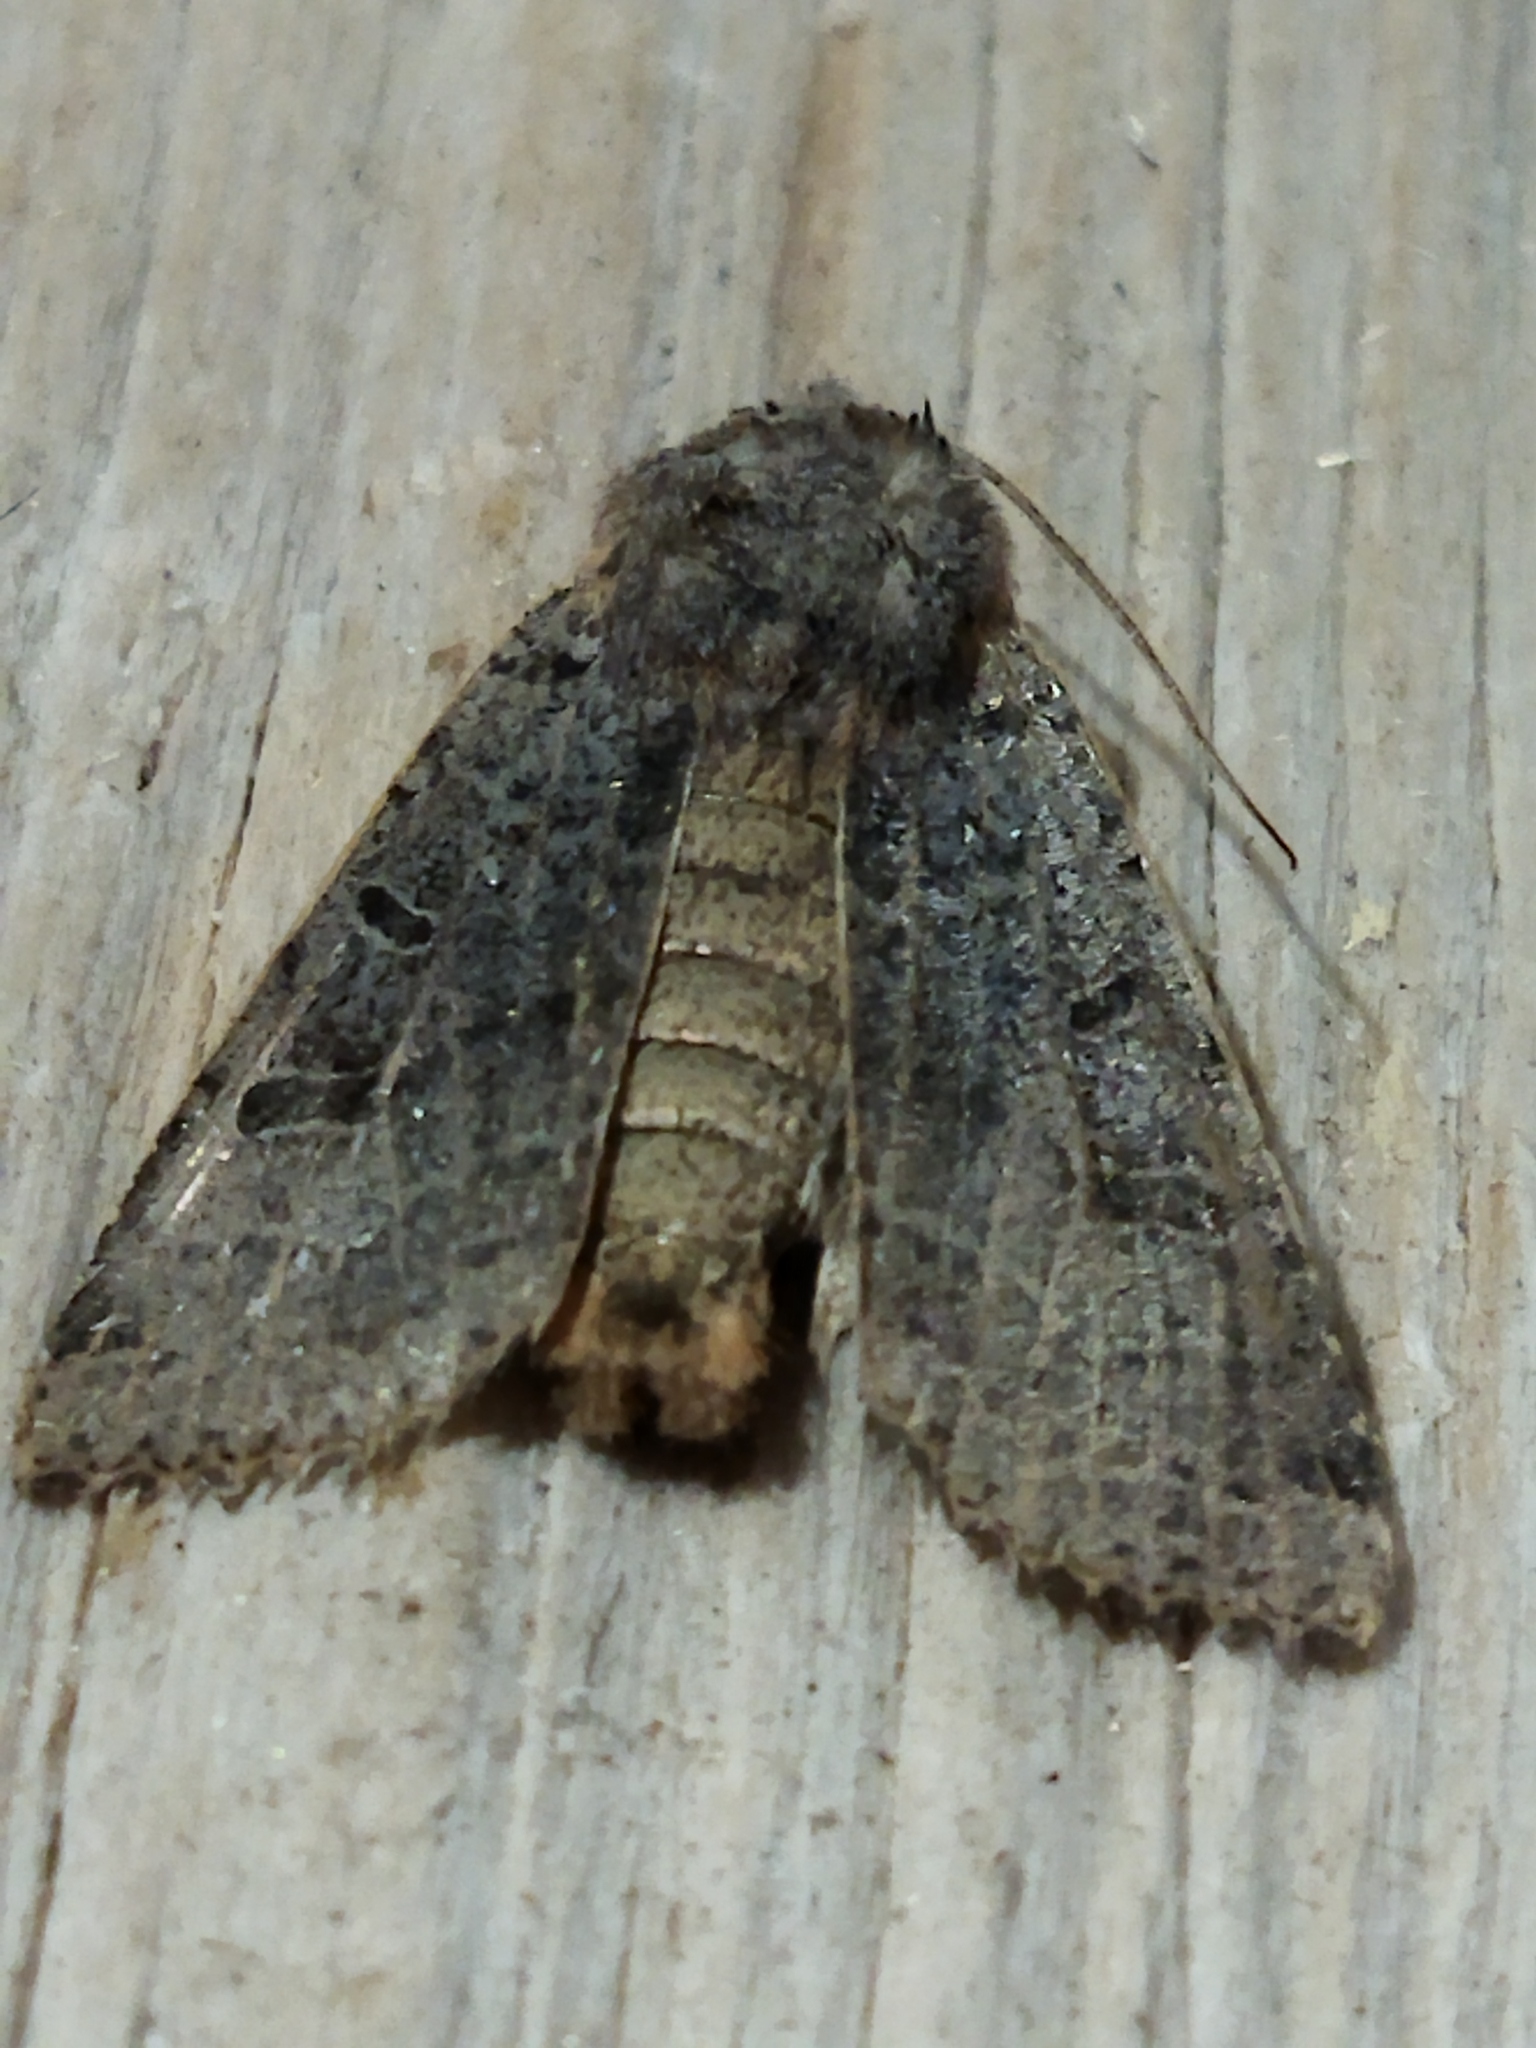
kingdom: Animalia
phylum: Arthropoda
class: Insecta
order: Lepidoptera
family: Noctuidae
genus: Agrochola
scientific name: Agrochola lychnidis
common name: Beaded chestnut
